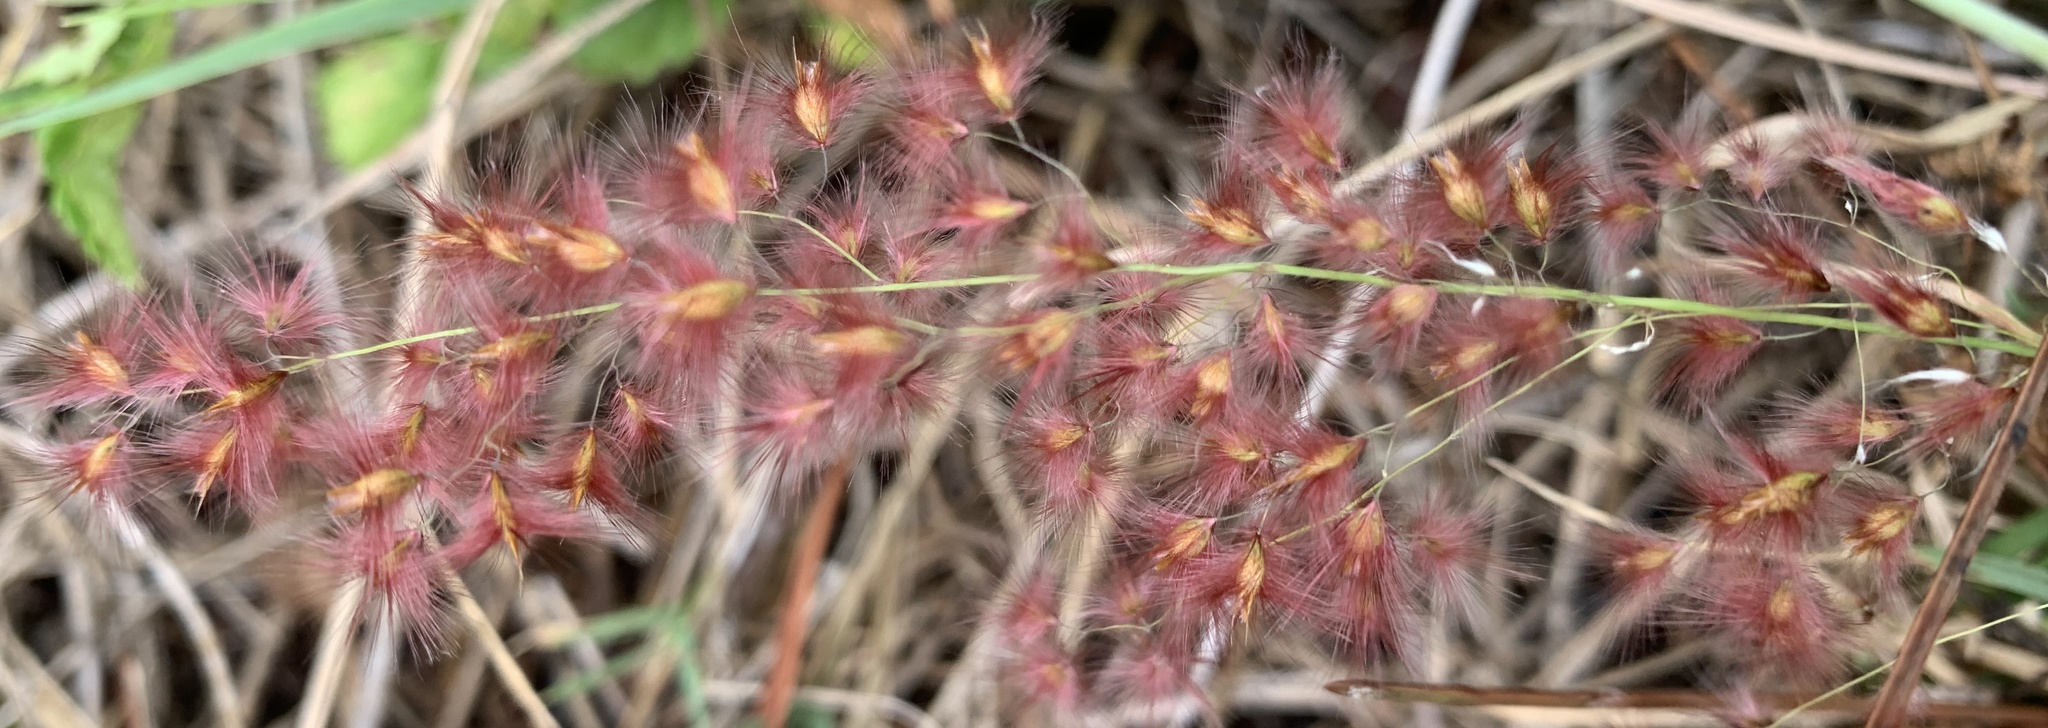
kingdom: Plantae
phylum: Tracheophyta
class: Liliopsida
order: Poales
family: Poaceae
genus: Melinis
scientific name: Melinis repens
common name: Rose natal grass
